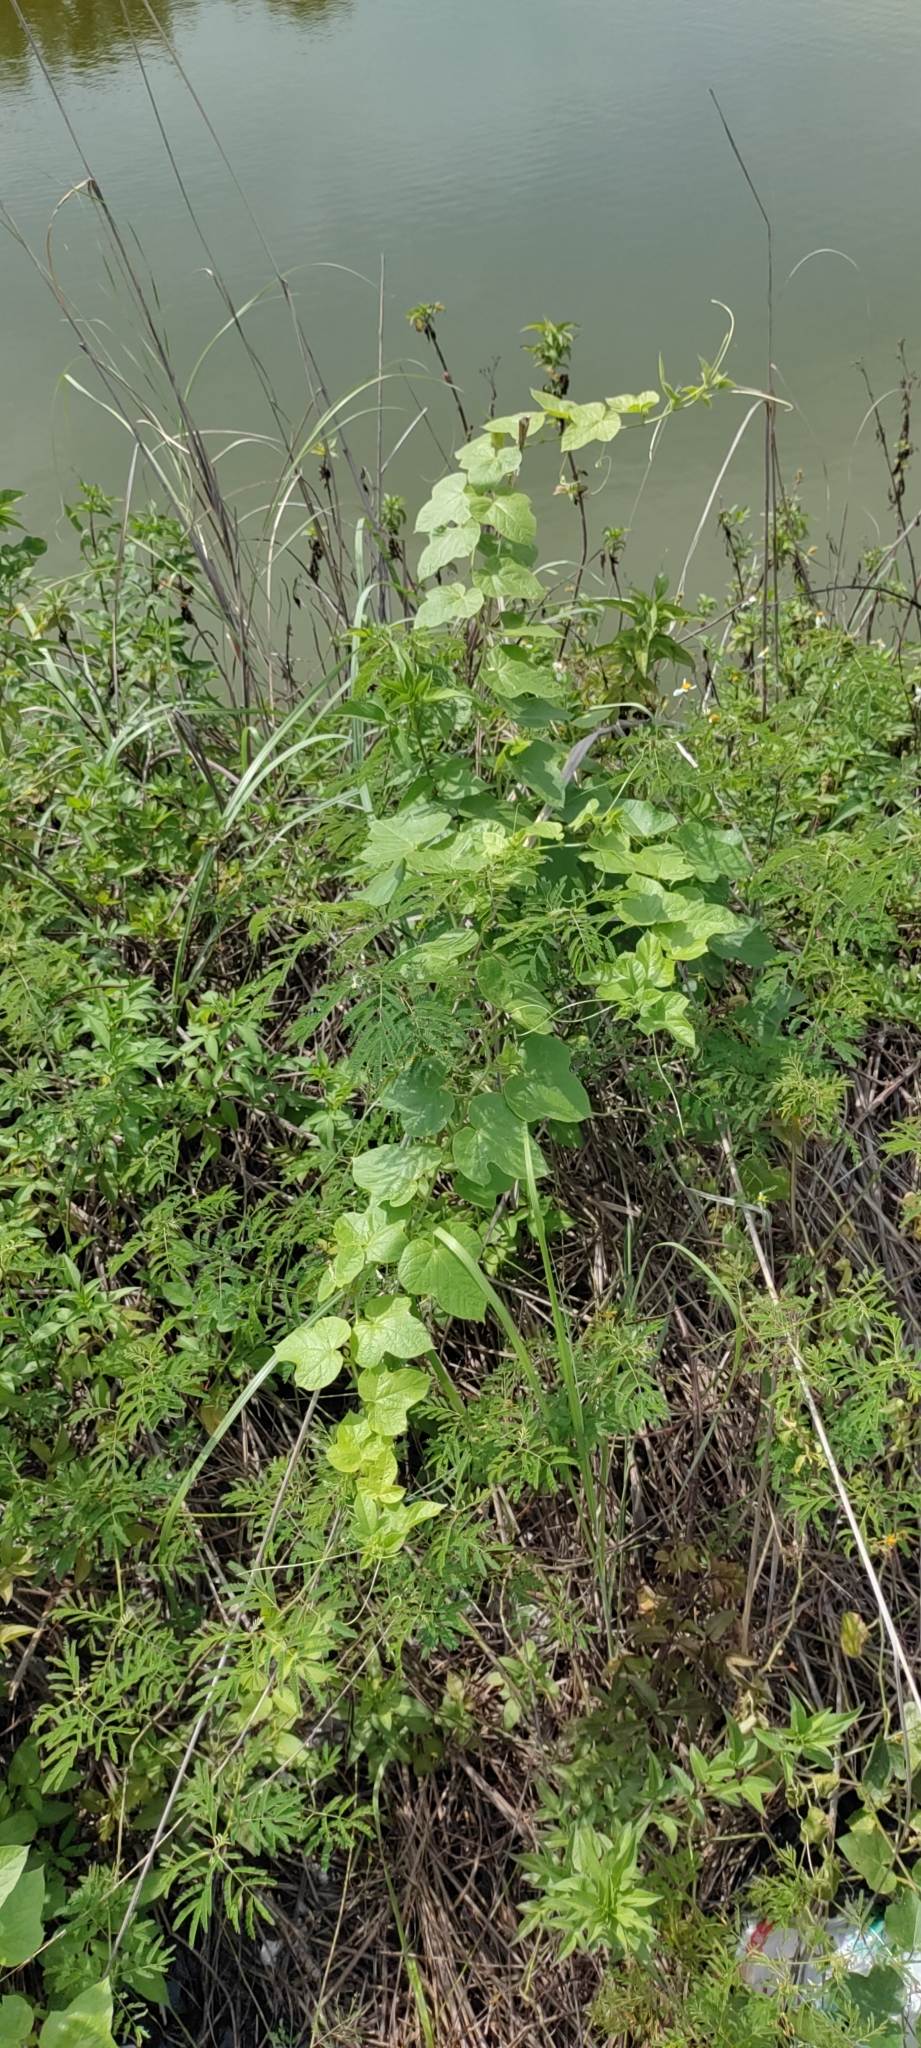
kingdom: Plantae
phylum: Tracheophyta
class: Magnoliopsida
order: Malpighiales
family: Passifloraceae
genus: Passiflora
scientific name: Passiflora vesicaria
